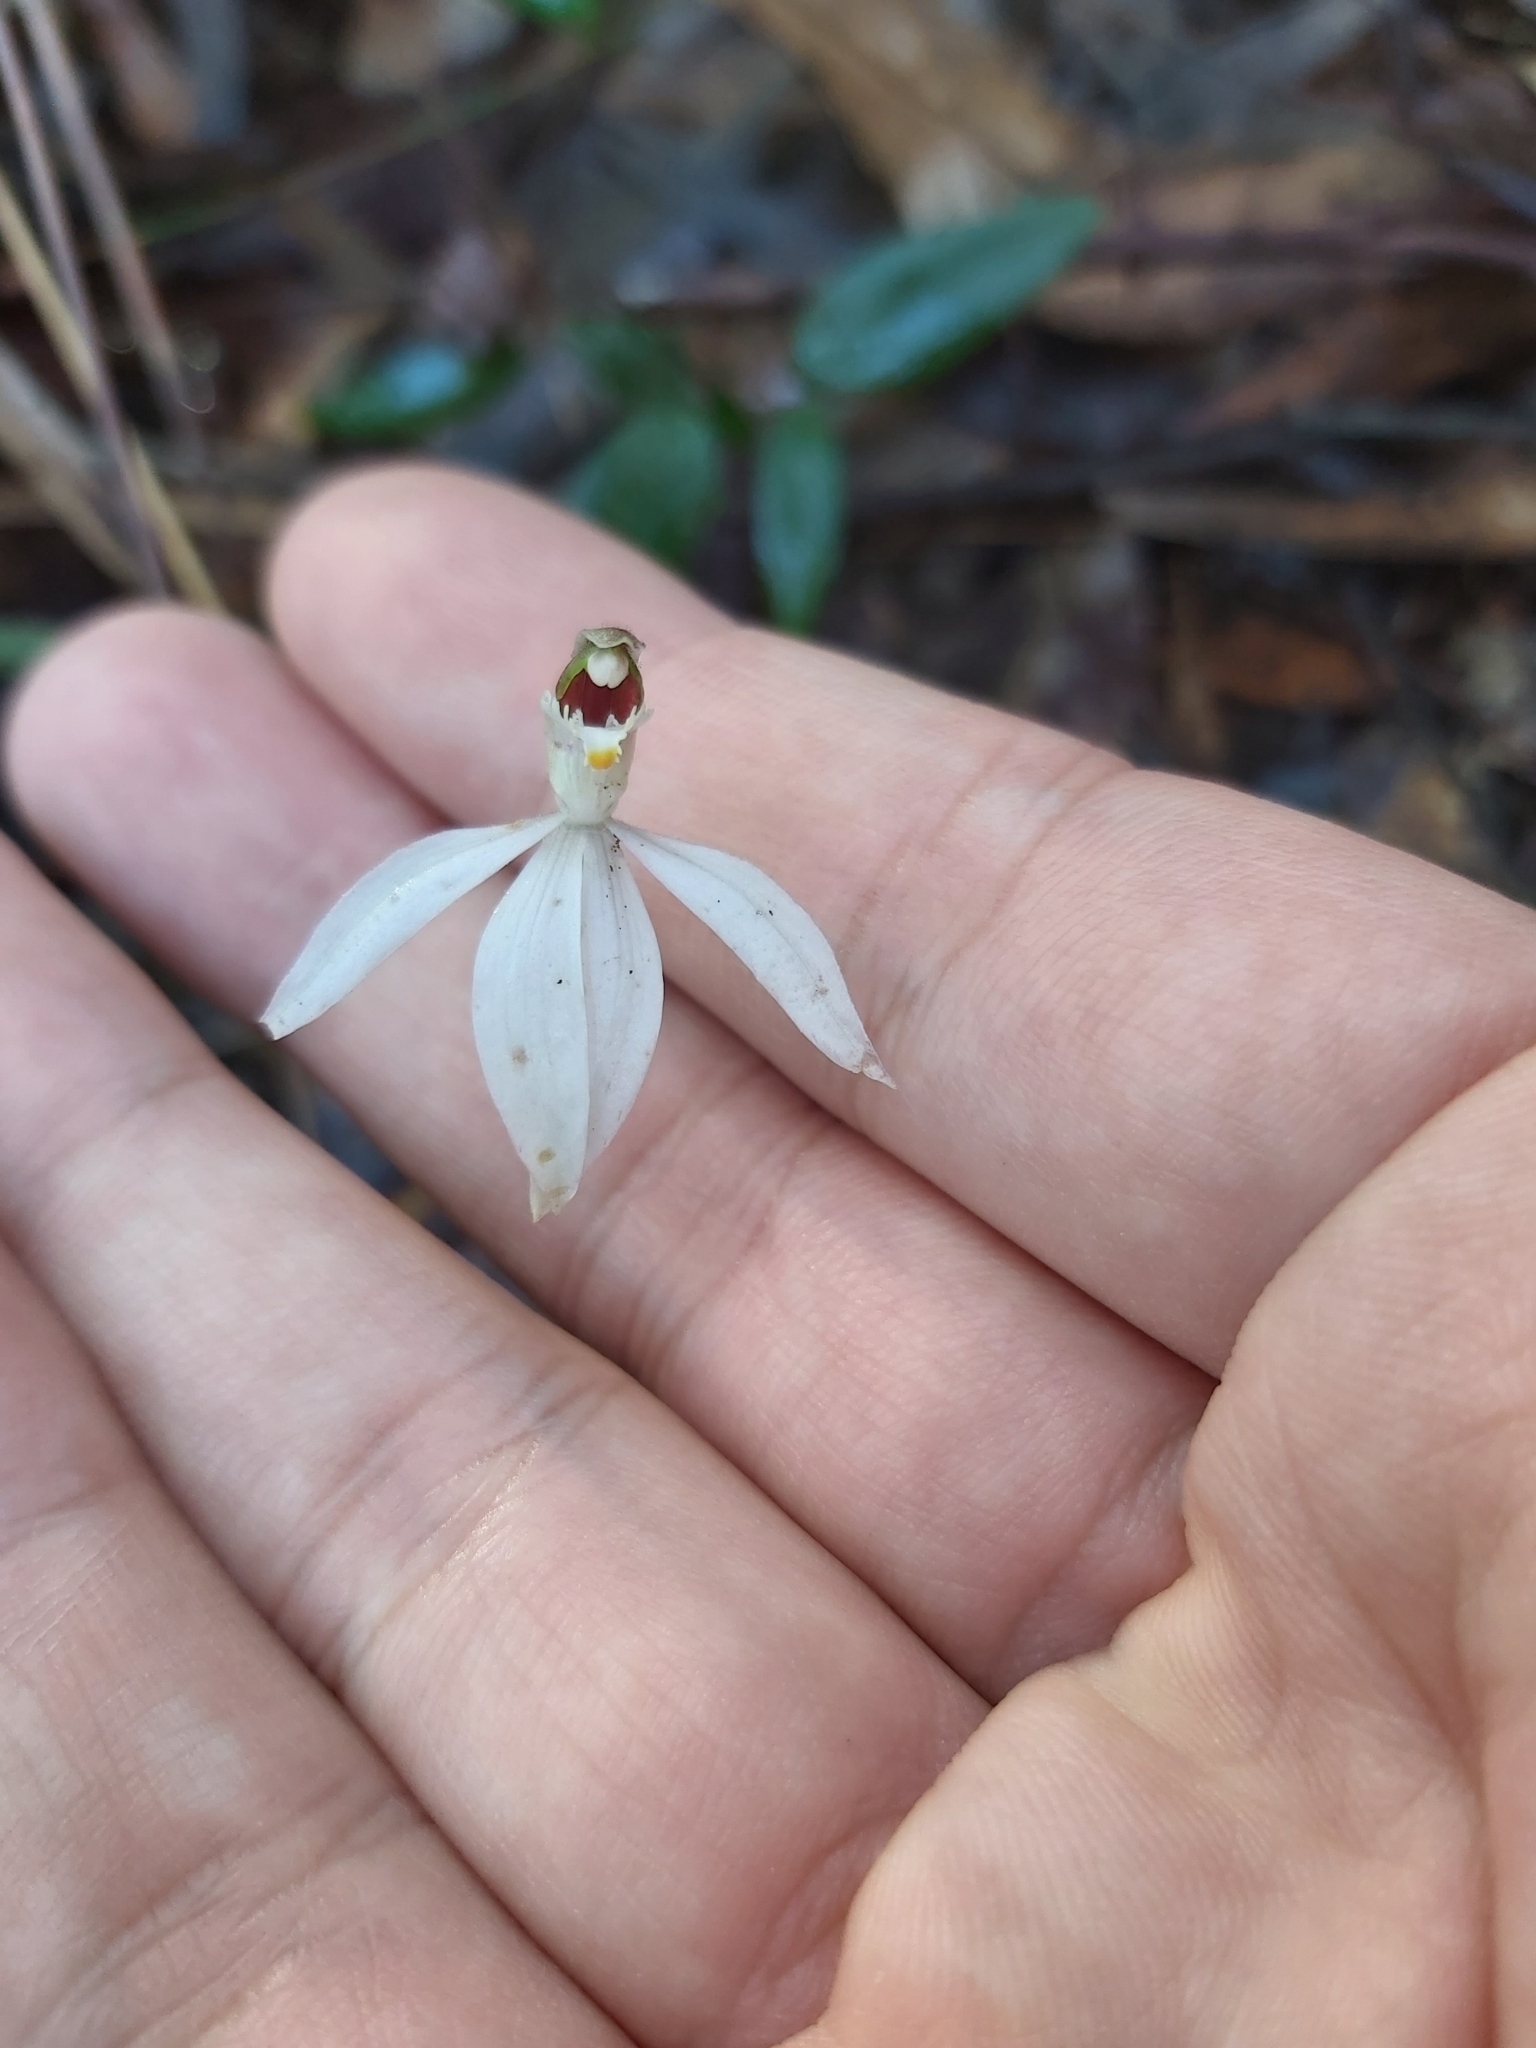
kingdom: Plantae
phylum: Tracheophyta
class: Liliopsida
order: Asparagales
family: Orchidaceae
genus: Caladenia
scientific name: Caladenia picta
